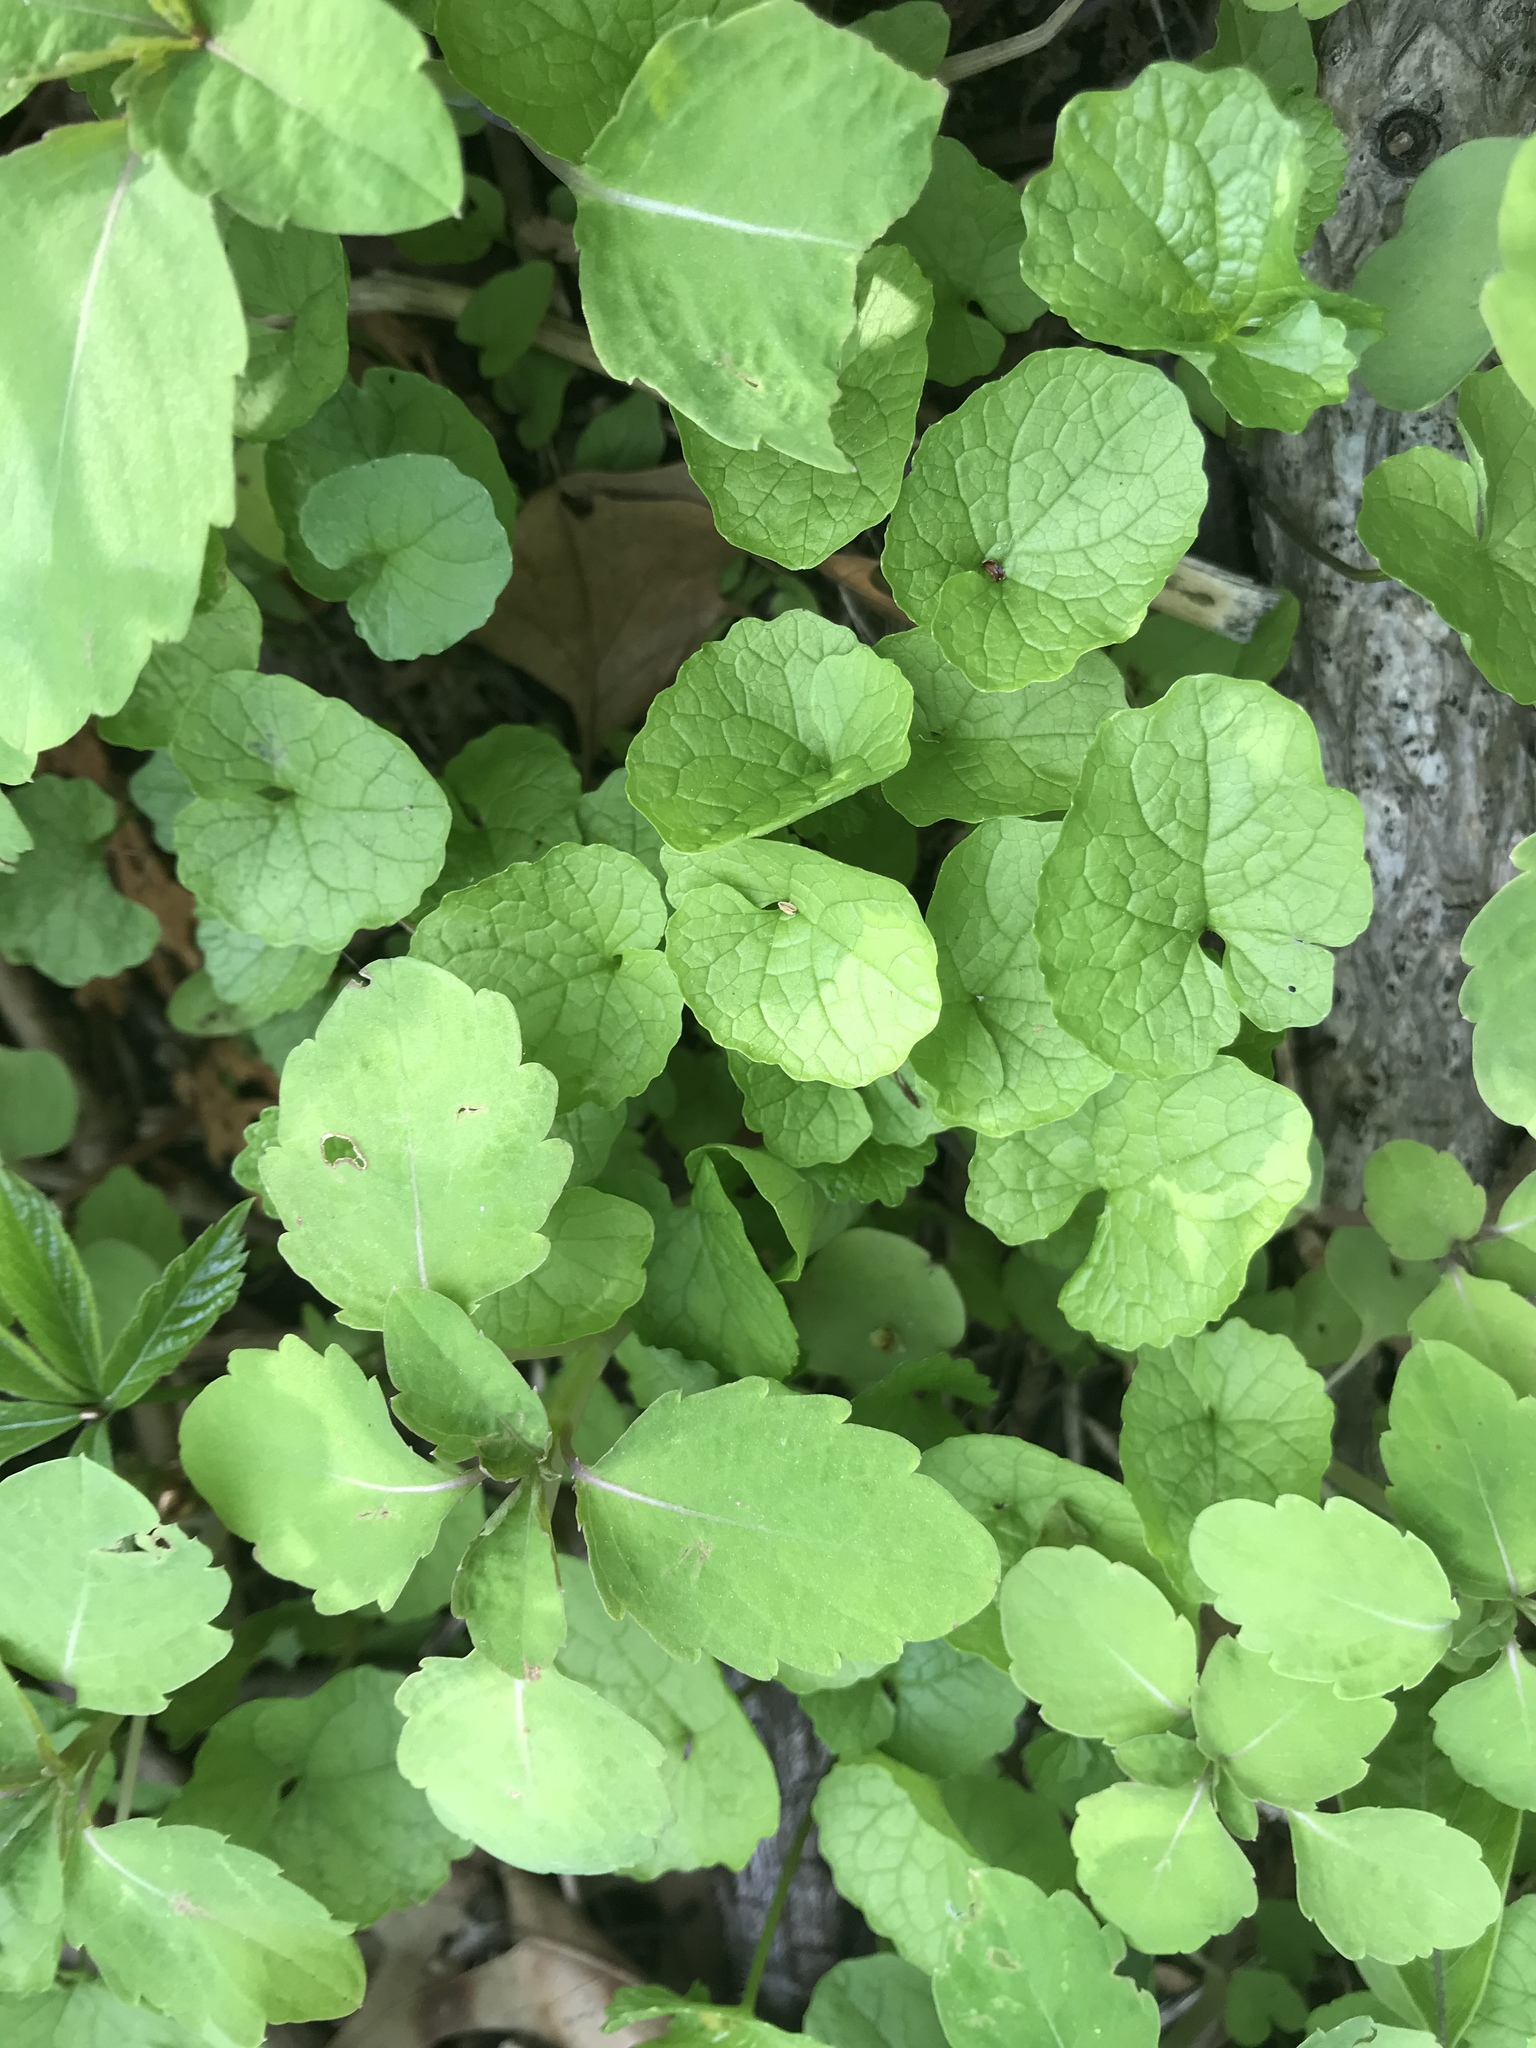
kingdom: Plantae
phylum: Tracheophyta
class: Magnoliopsida
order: Brassicales
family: Brassicaceae
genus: Alliaria
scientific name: Alliaria petiolata
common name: Garlic mustard
